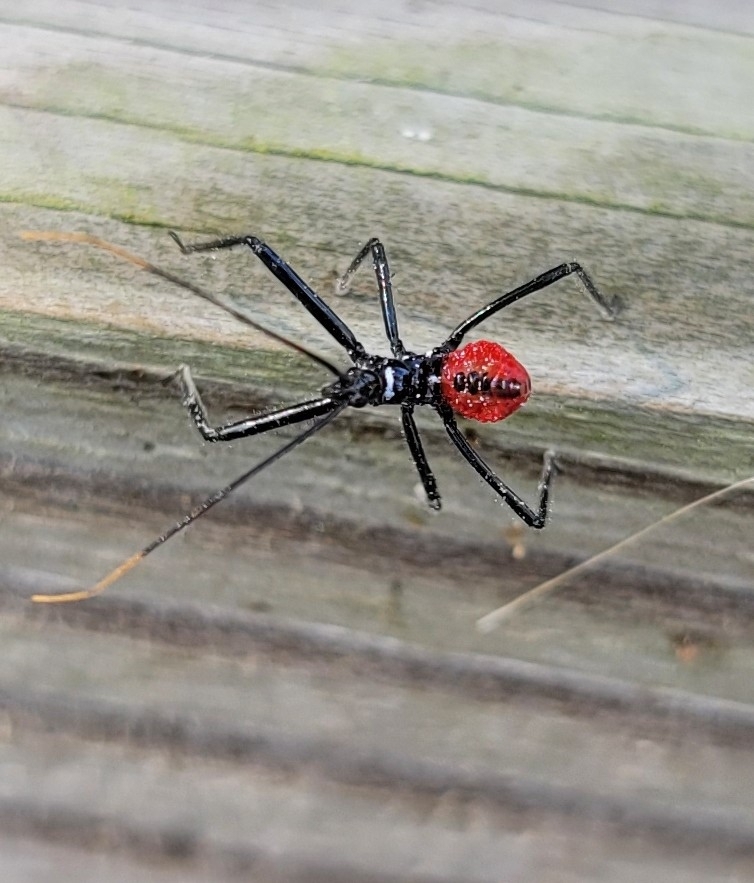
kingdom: Animalia
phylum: Arthropoda
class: Insecta
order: Hemiptera
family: Reduviidae
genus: Arilus
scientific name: Arilus cristatus
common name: North american wheel bug
